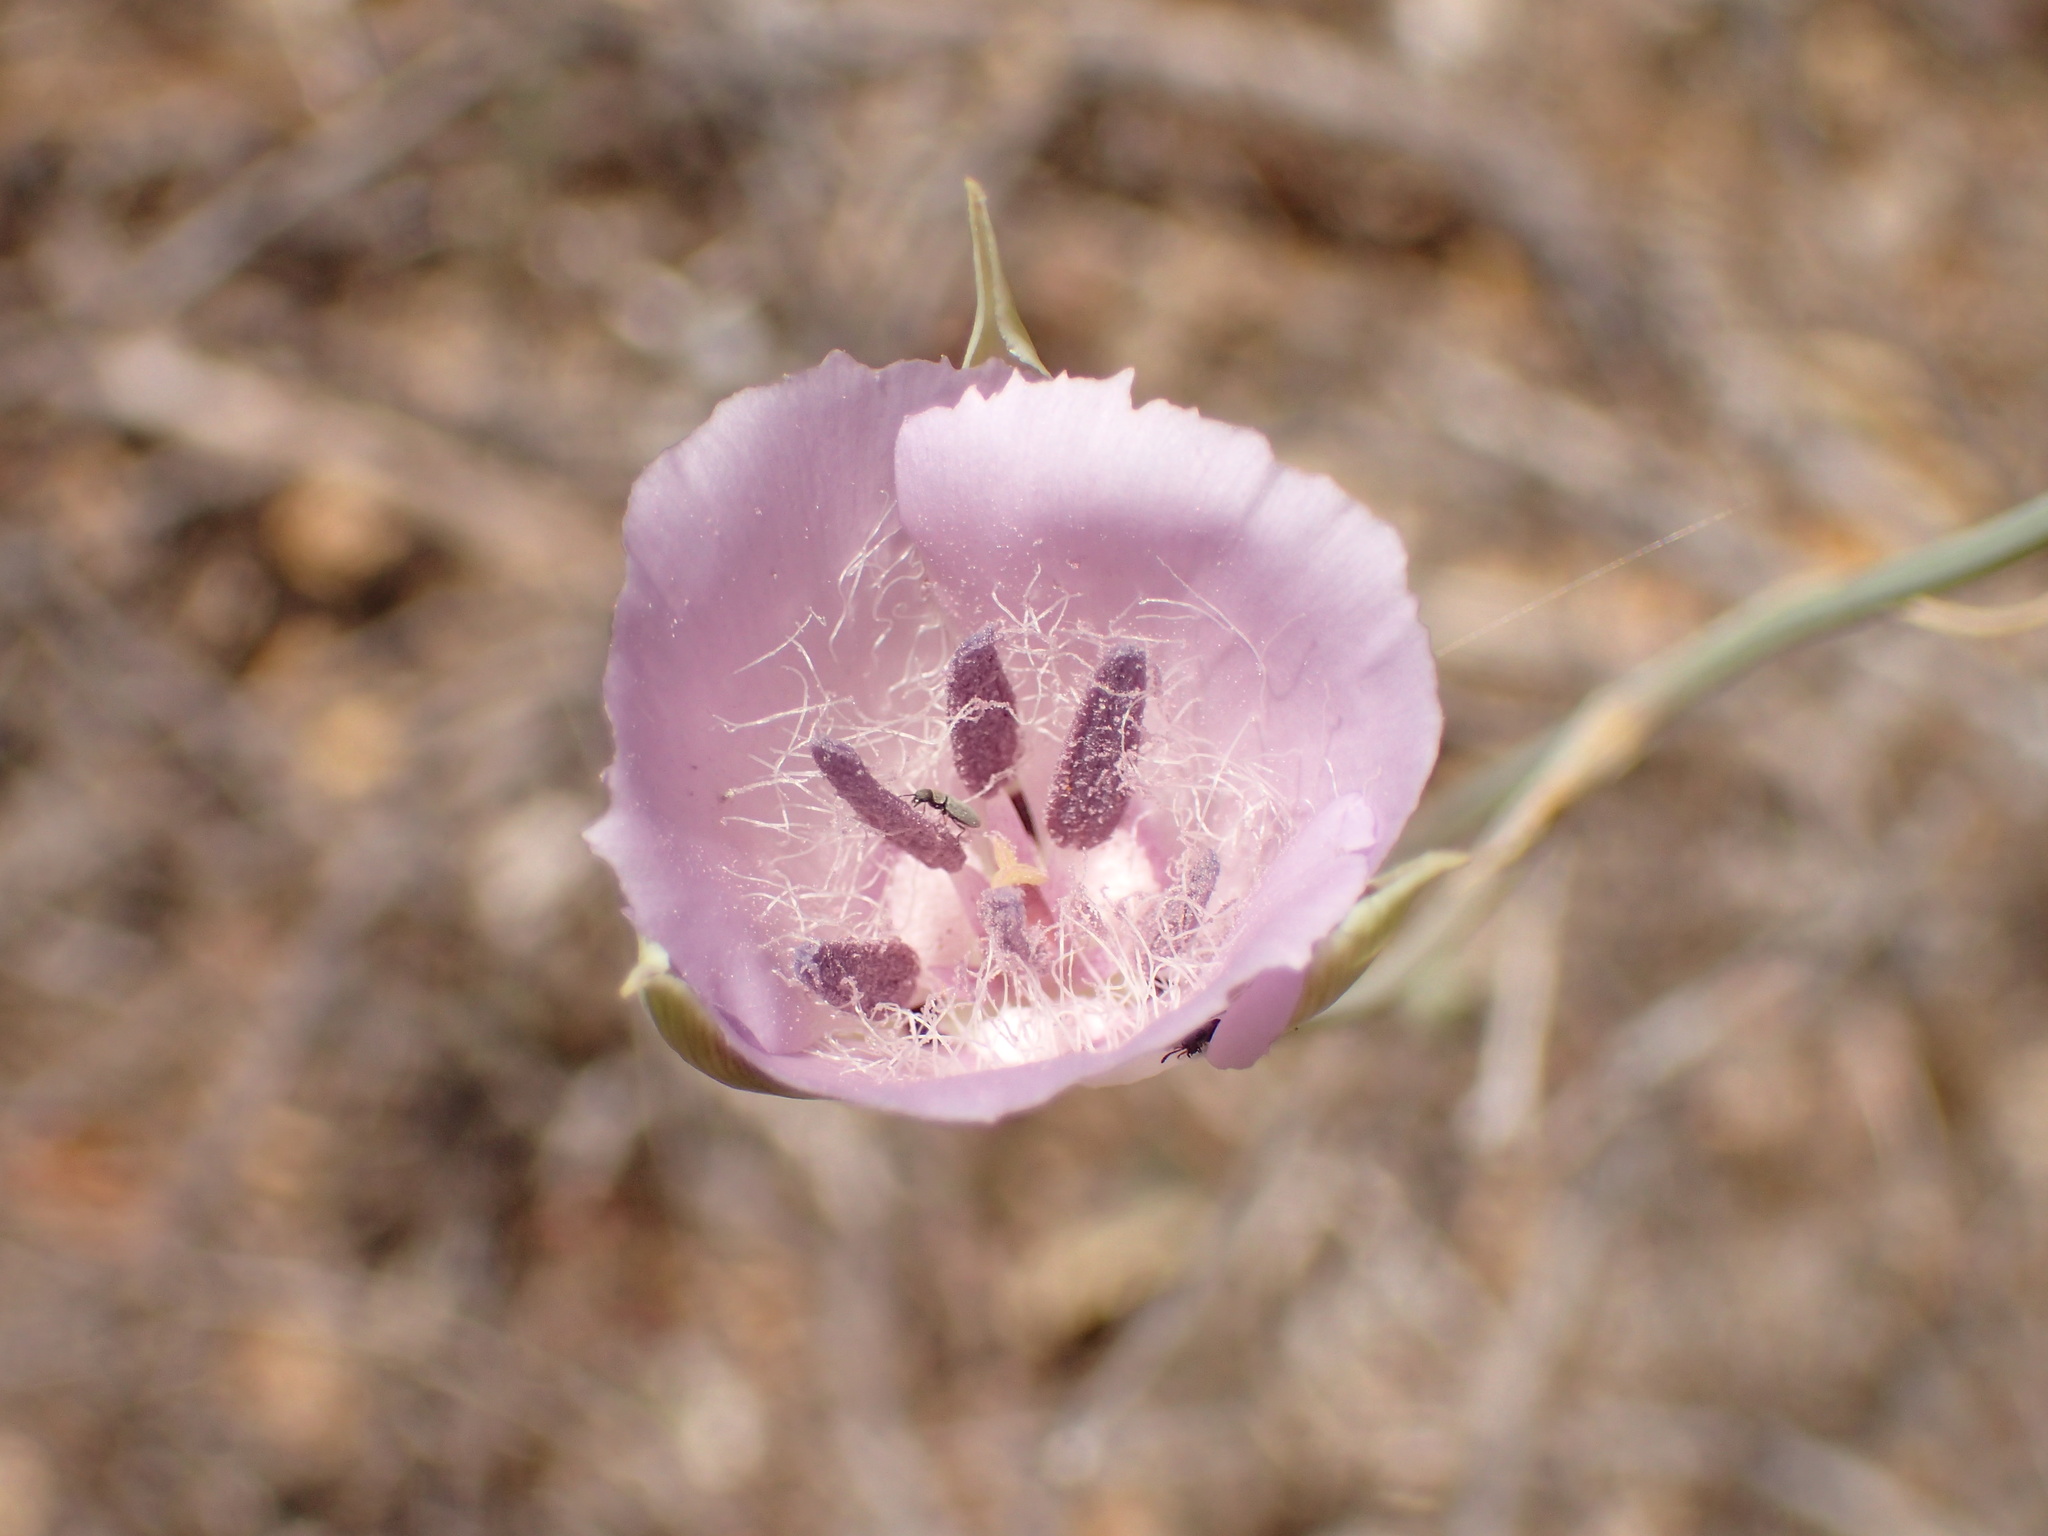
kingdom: Plantae
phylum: Tracheophyta
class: Liliopsida
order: Liliales
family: Liliaceae
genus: Calochortus
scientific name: Calochortus splendens
